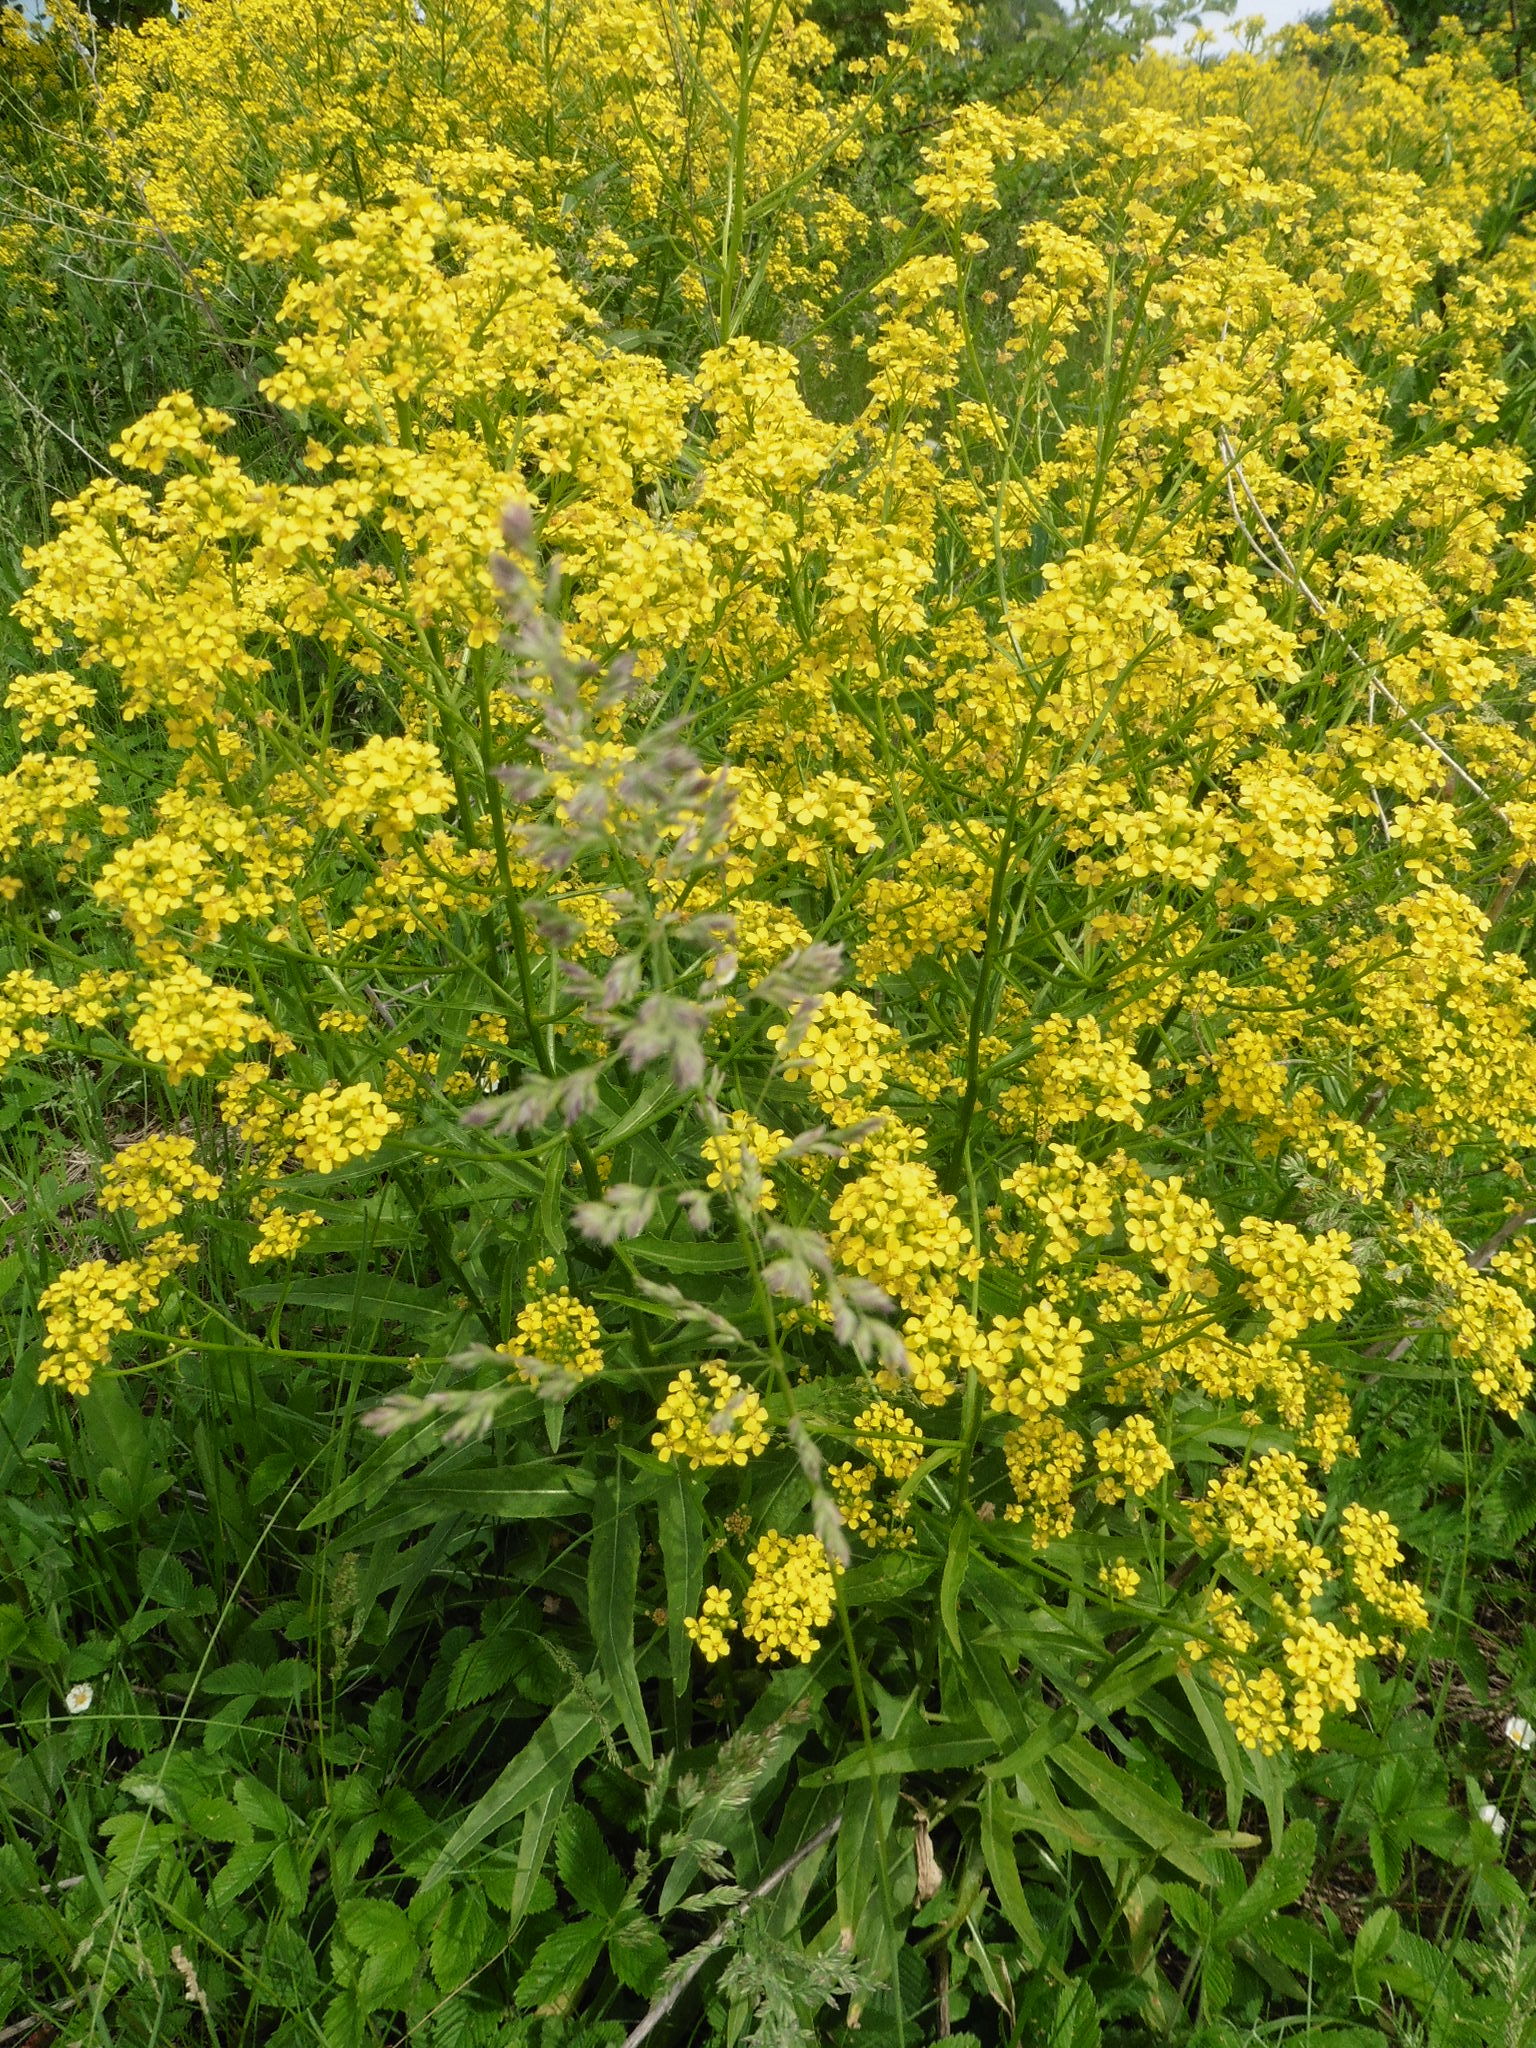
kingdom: Plantae
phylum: Tracheophyta
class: Magnoliopsida
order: Brassicales
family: Brassicaceae
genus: Bunias
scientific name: Bunias orientalis
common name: Warty-cabbage
